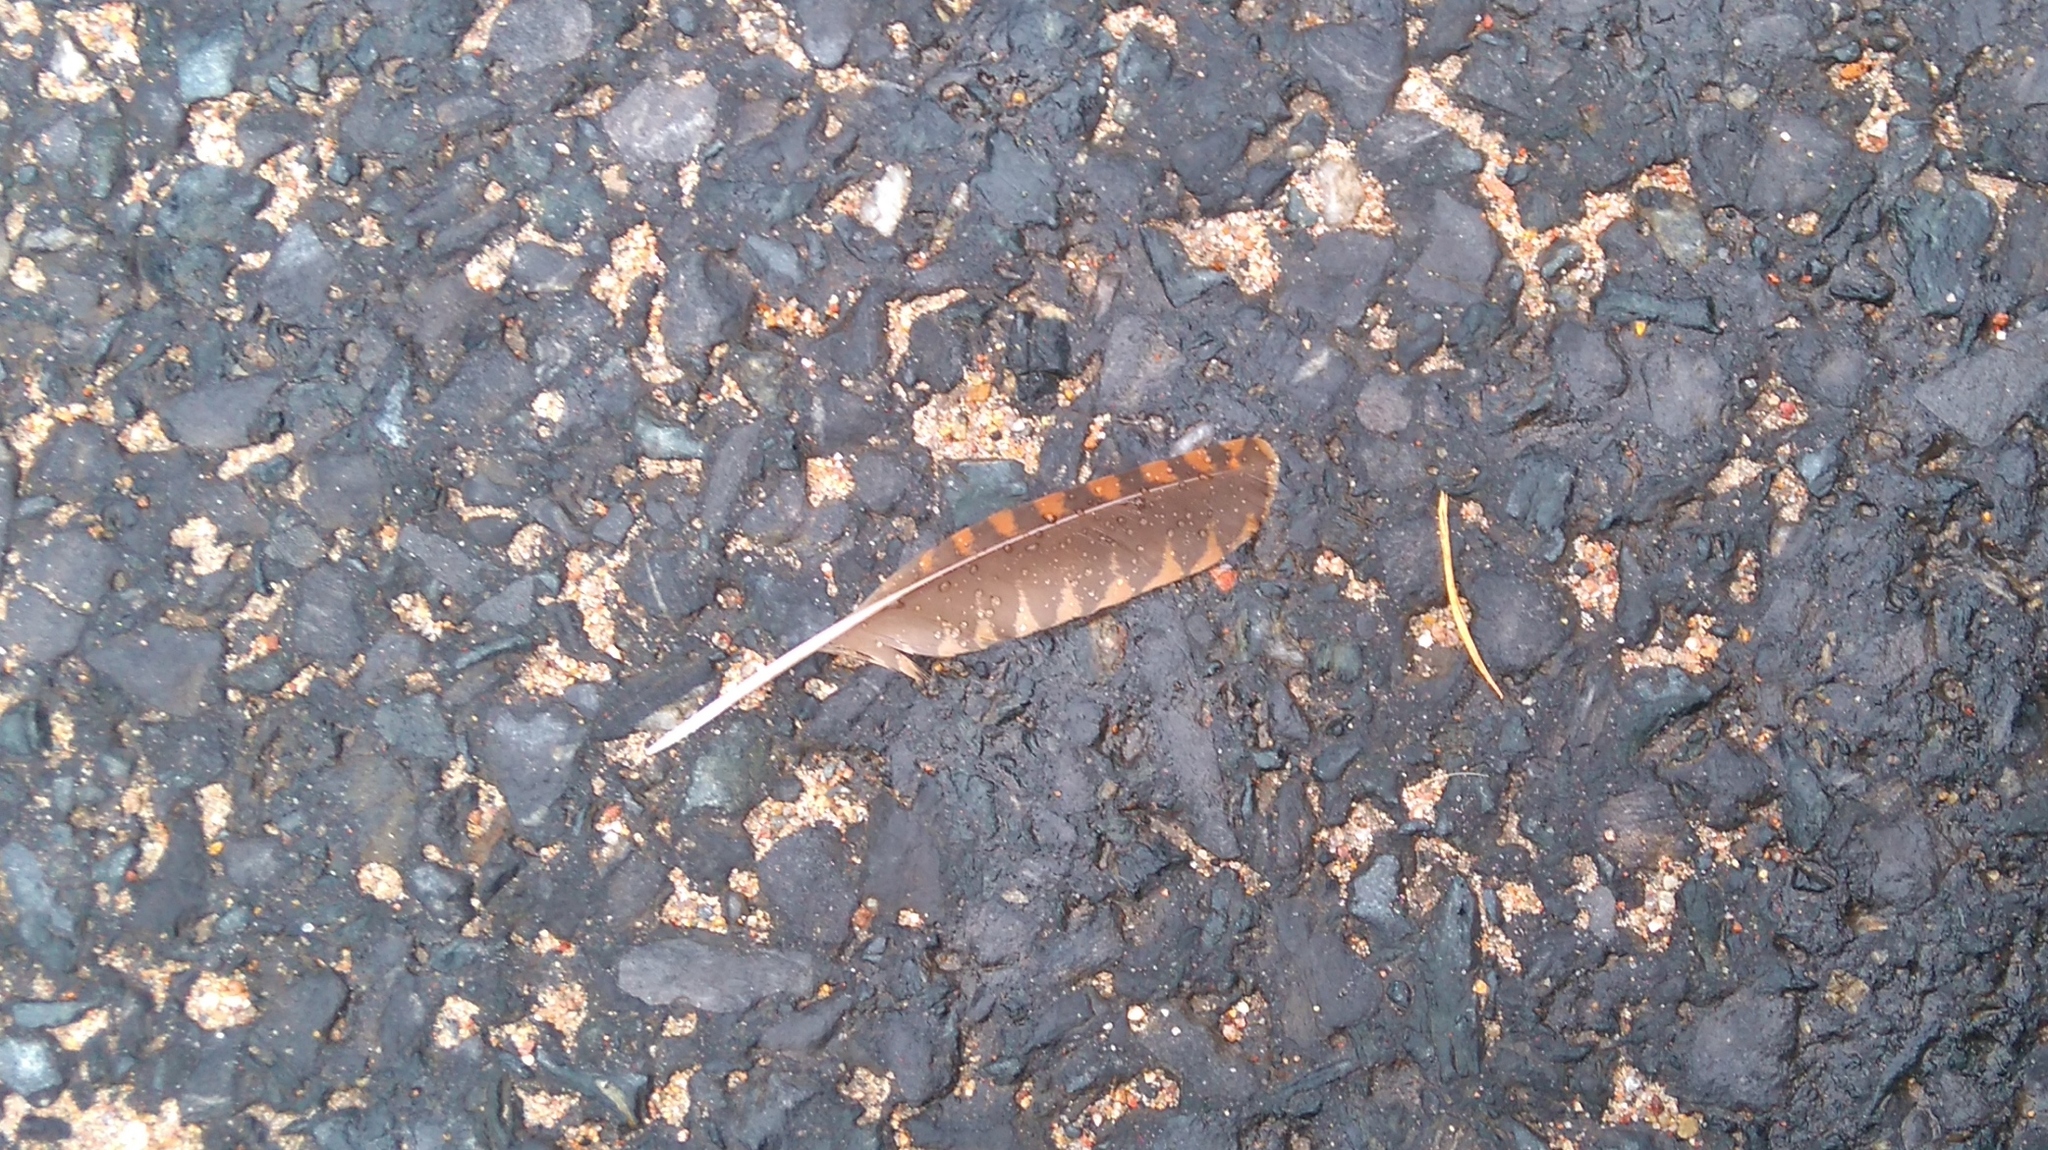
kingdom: Animalia
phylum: Chordata
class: Aves
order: Charadriiformes
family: Scolopacidae
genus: Scolopax
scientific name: Scolopax rusticola
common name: Eurasian woodcock
